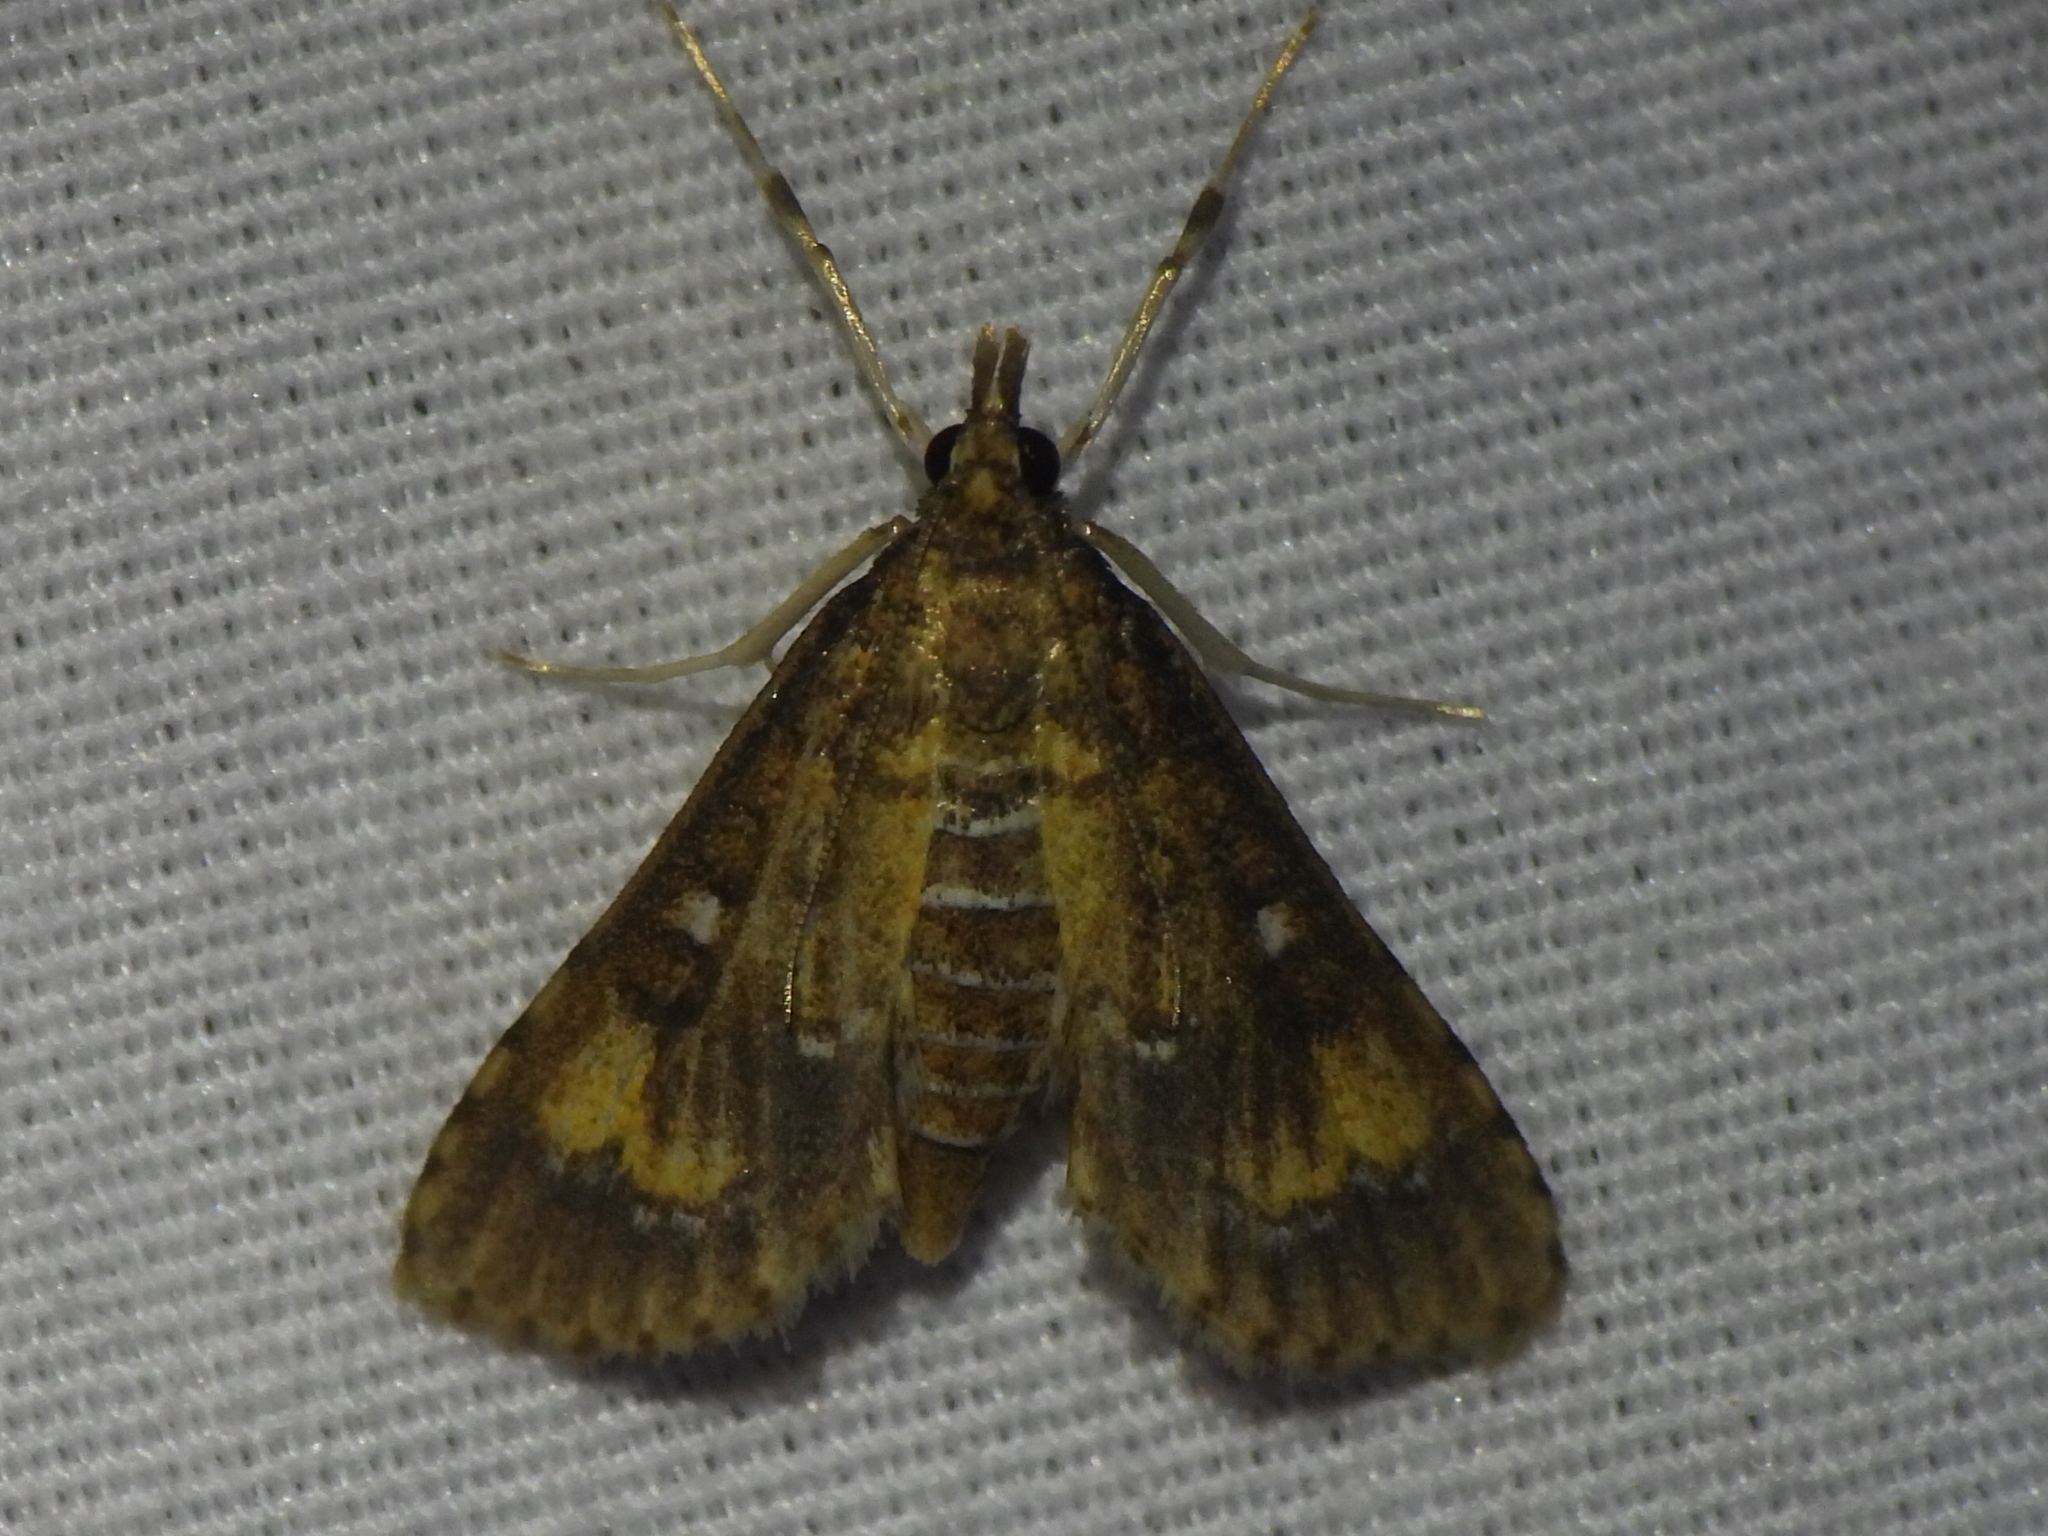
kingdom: Animalia
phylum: Arthropoda
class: Insecta
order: Lepidoptera
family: Crambidae
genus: Niphograpta
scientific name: Niphograpta albiguttalis
